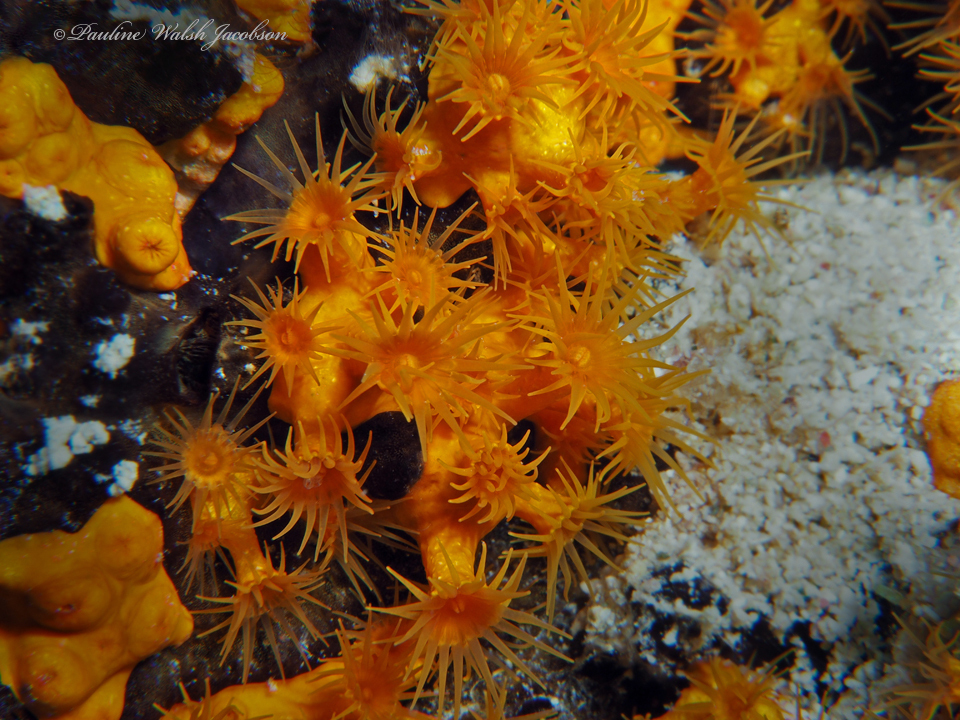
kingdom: Animalia
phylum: Cnidaria
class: Anthozoa
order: Zoantharia
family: Parazoanthidae
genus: Parazoanthus
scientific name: Parazoanthus swiftii
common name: Golden zoanthid
